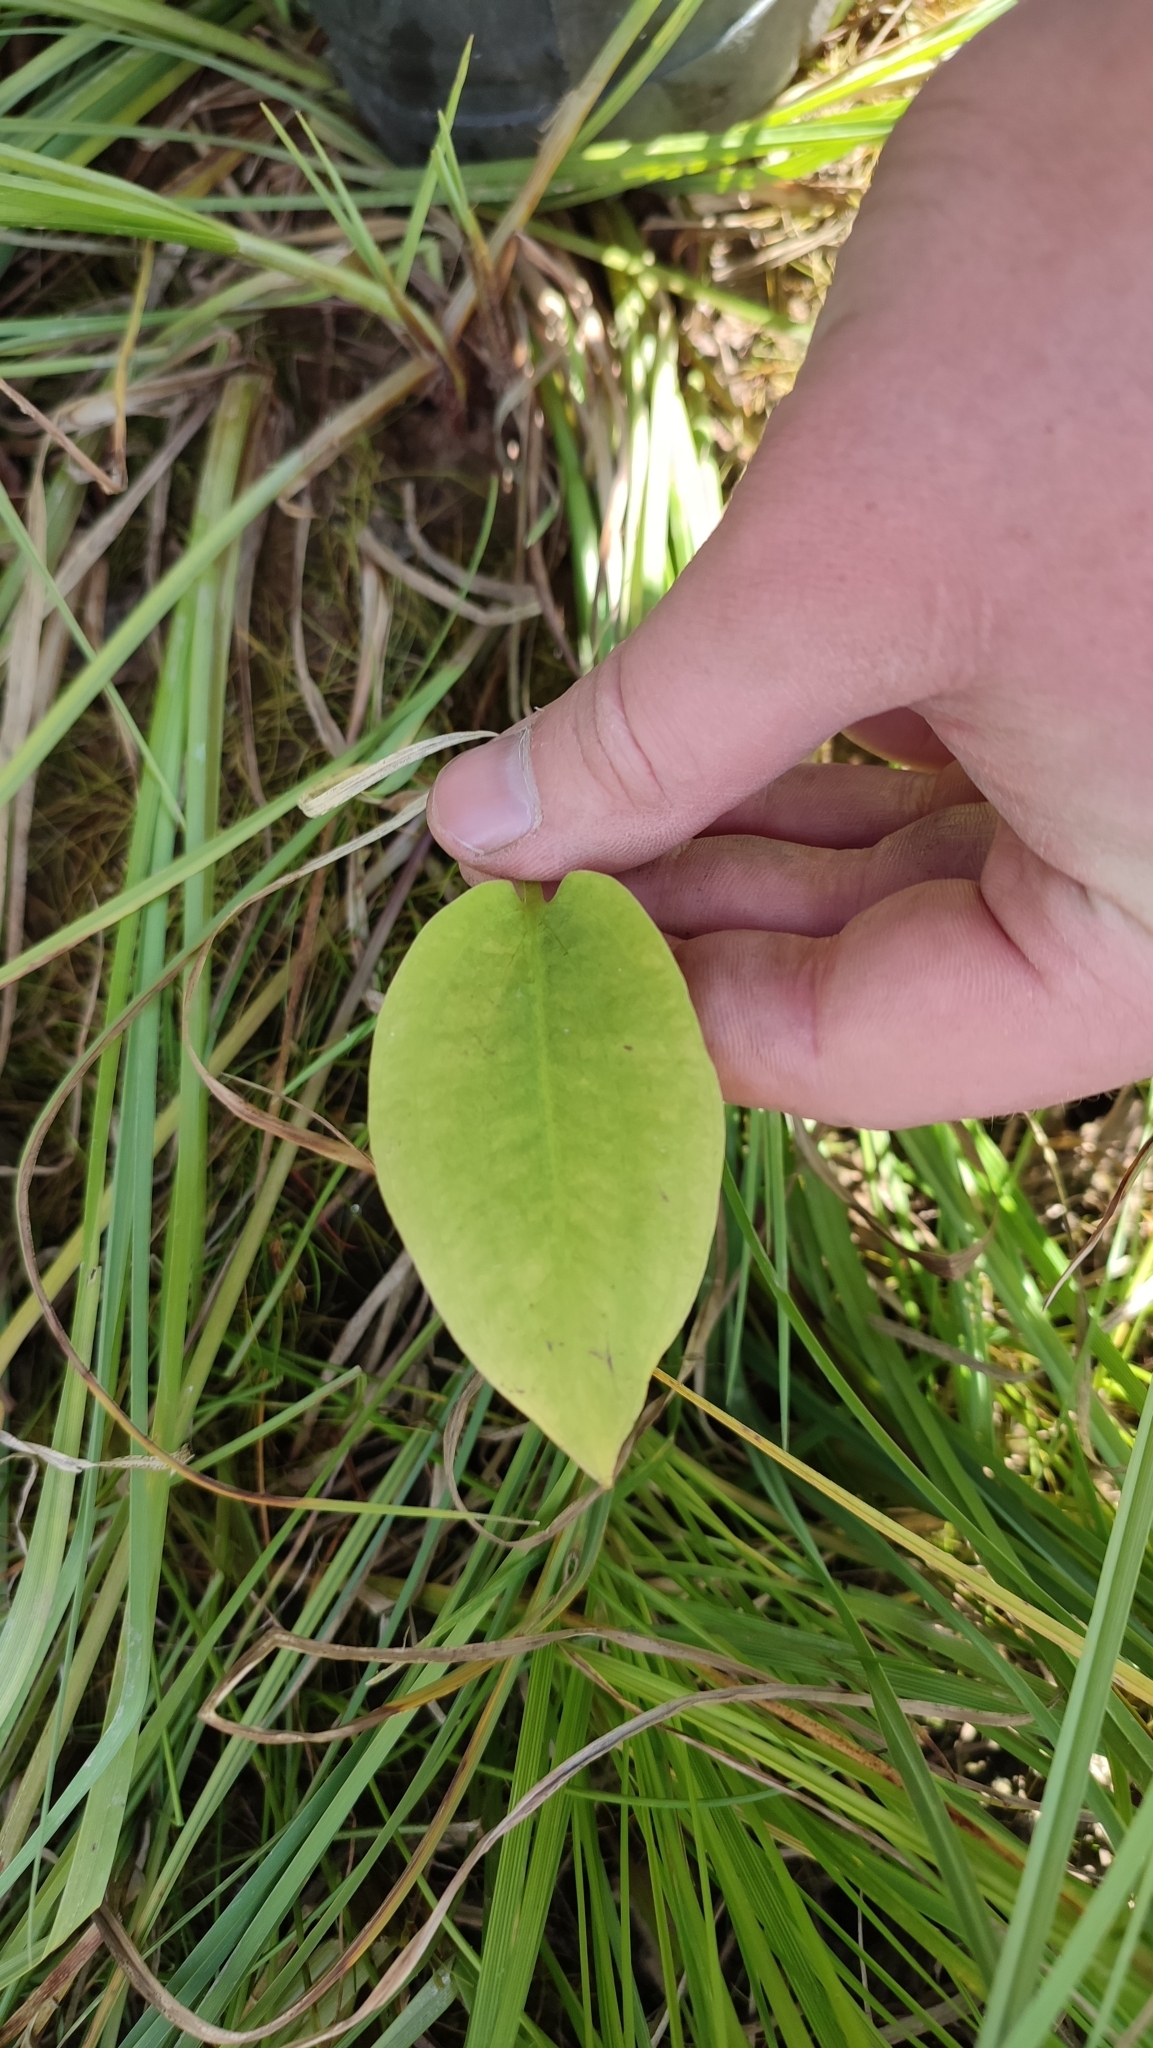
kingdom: Plantae
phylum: Tracheophyta
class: Liliopsida
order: Alismatales
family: Alismataceae
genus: Alisma
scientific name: Alisma plantago-aquatica
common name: Water-plantain
